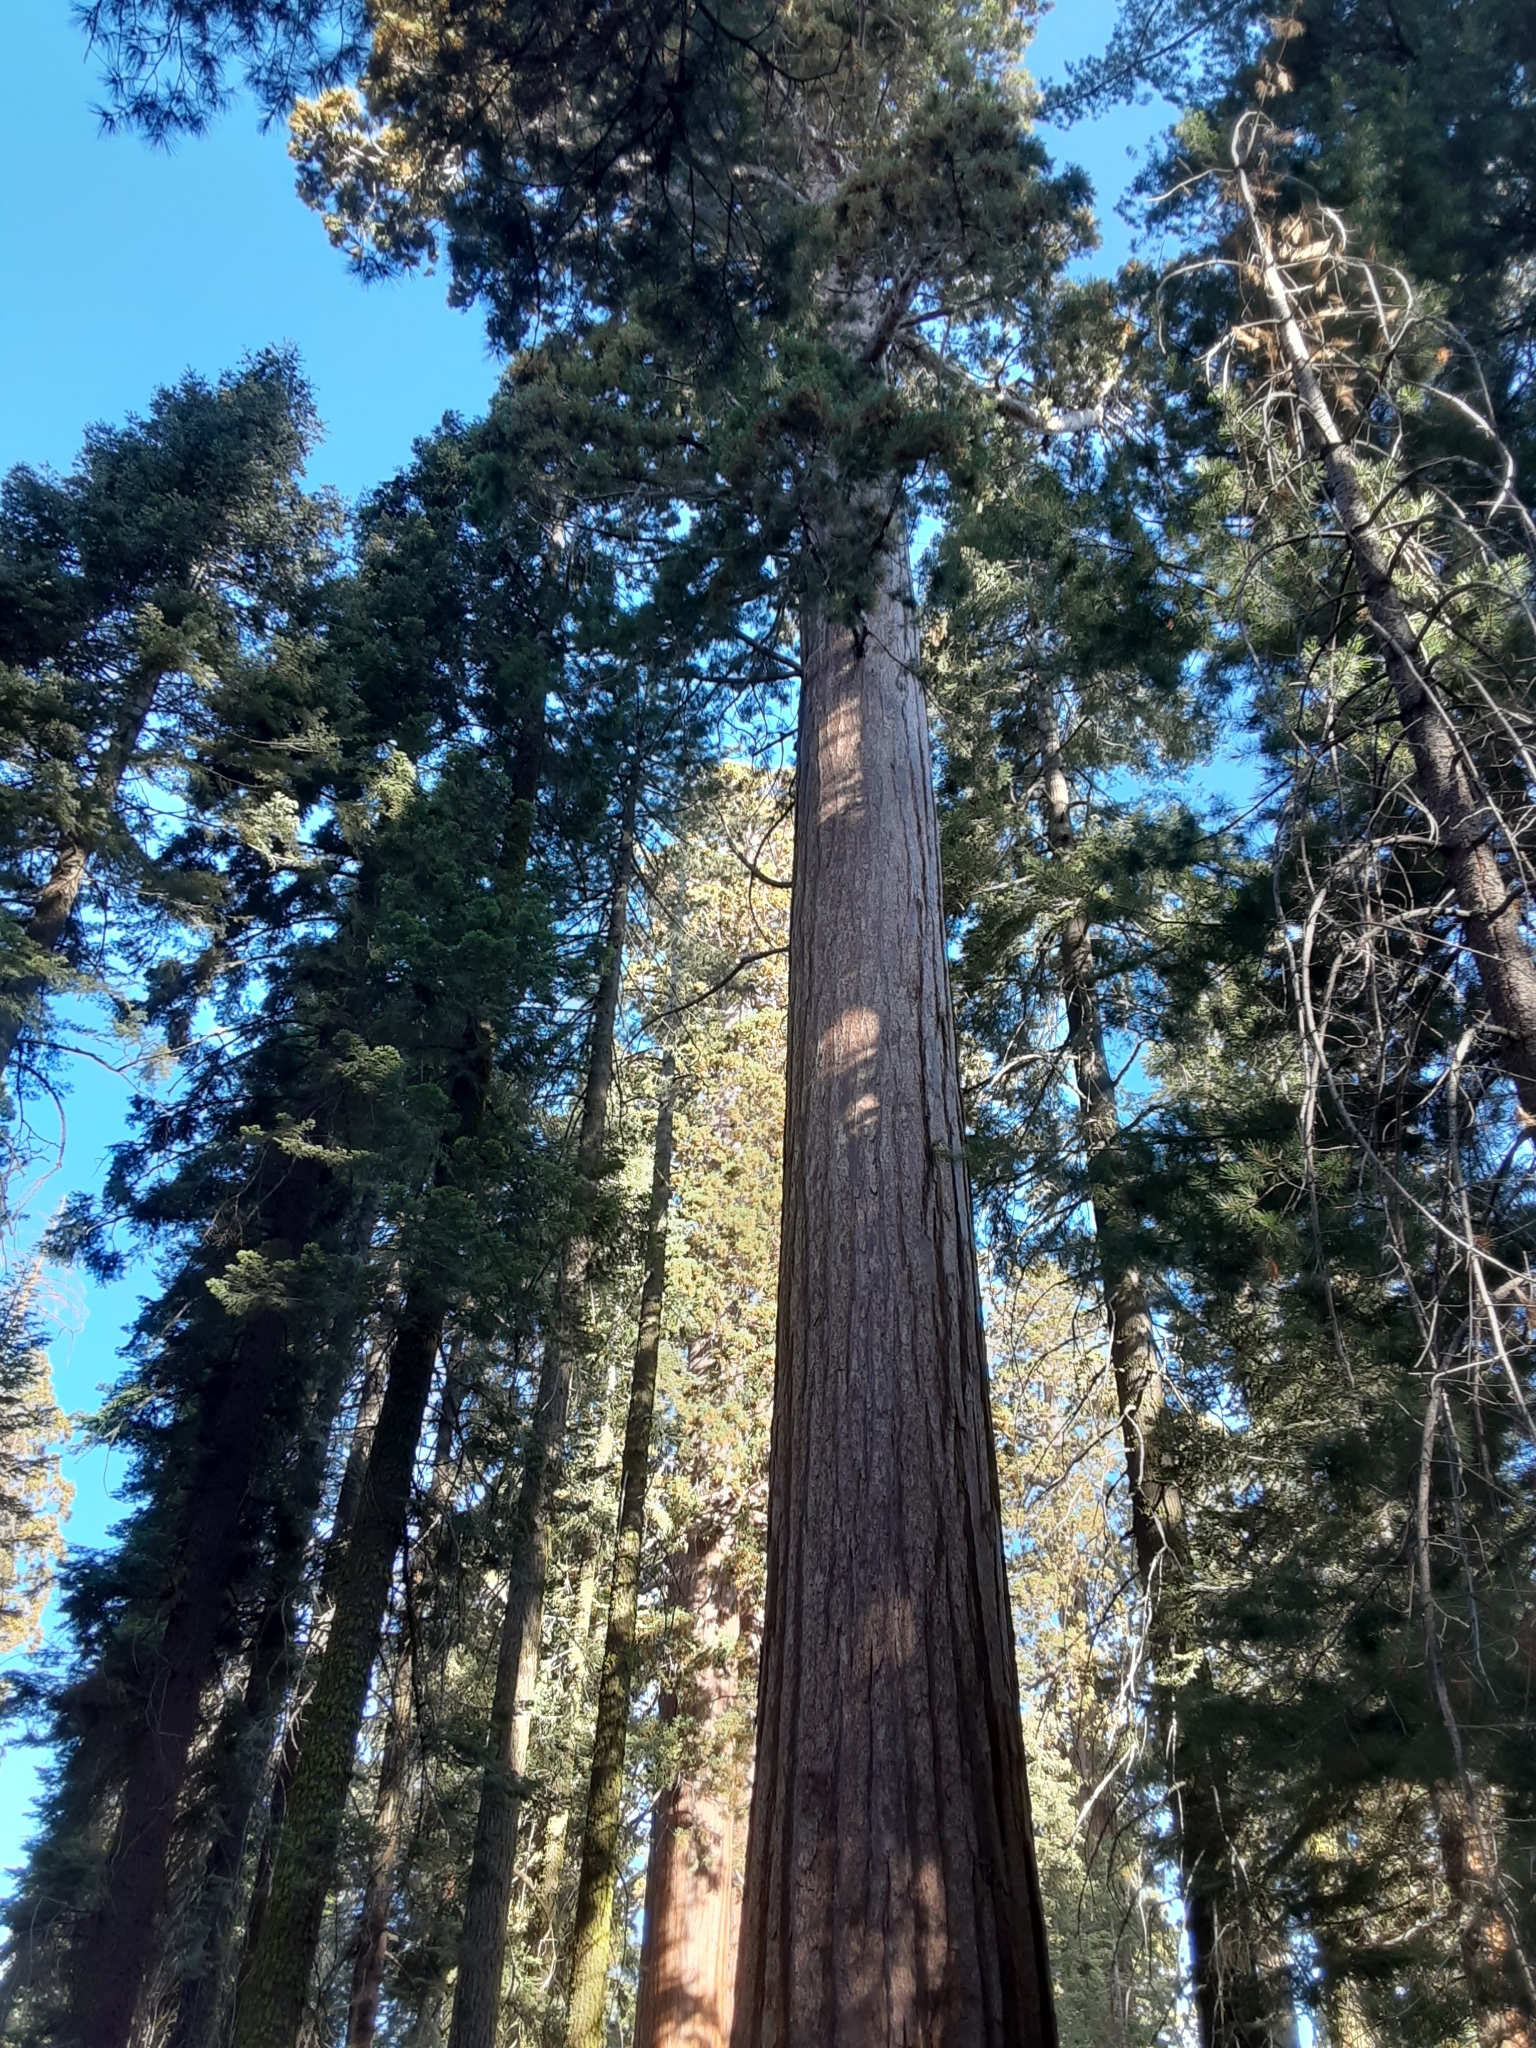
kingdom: Plantae
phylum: Tracheophyta
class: Pinopsida
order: Pinales
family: Cupressaceae
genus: Sequoiadendron
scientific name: Sequoiadendron giganteum
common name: Wellingtonia
